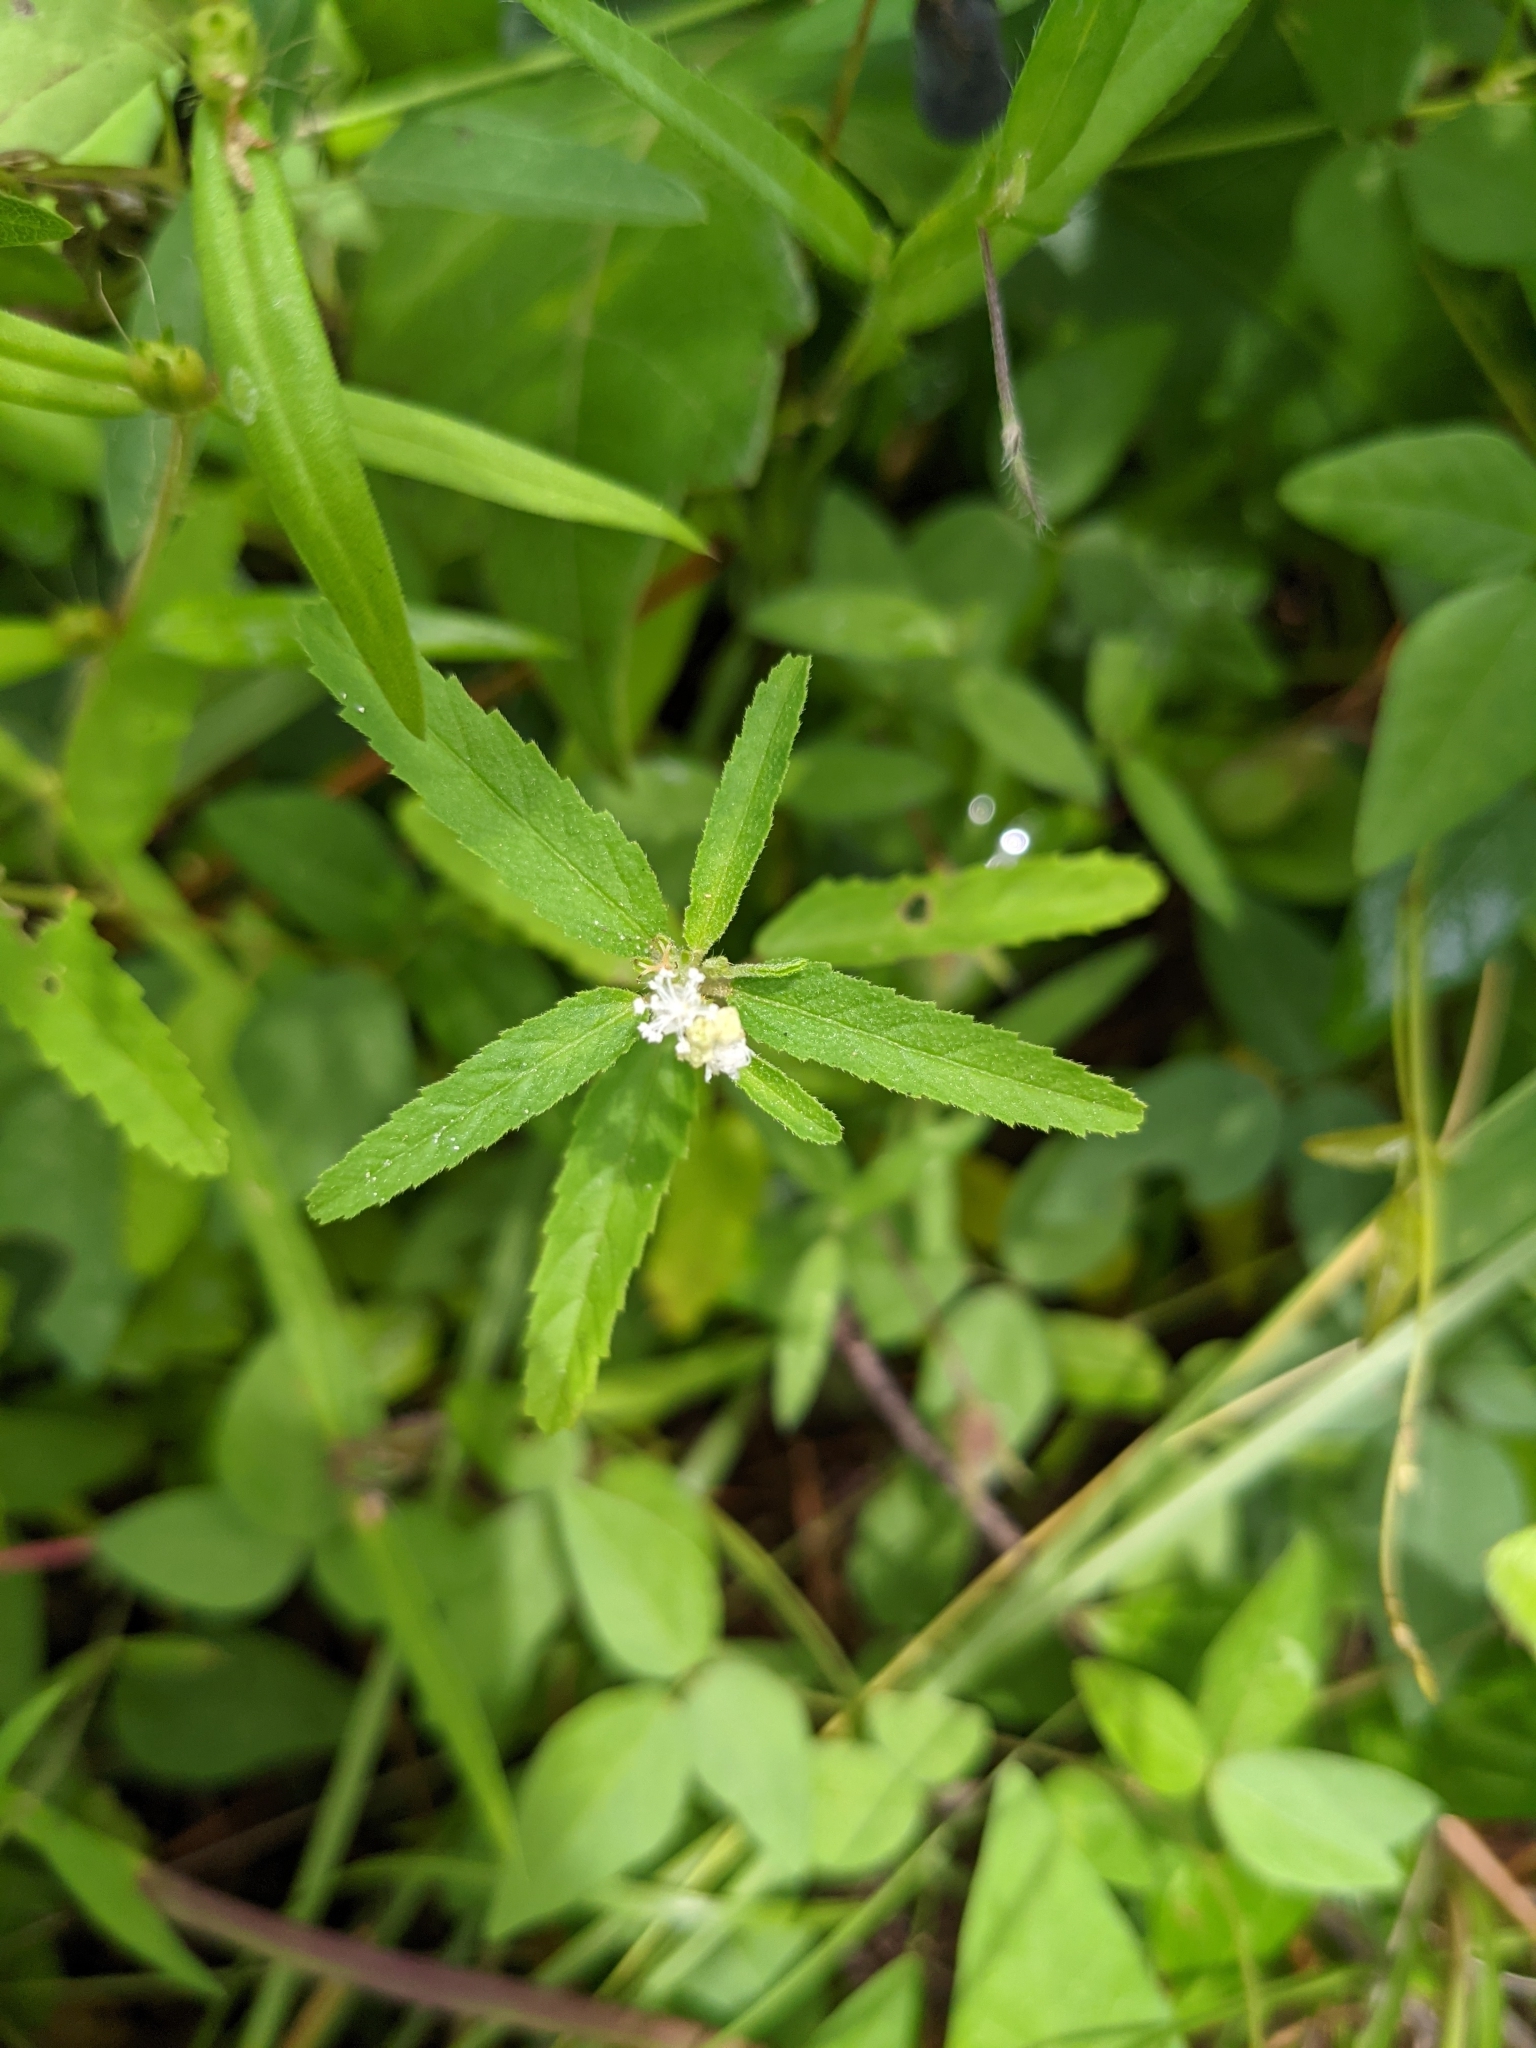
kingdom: Plantae
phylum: Tracheophyta
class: Magnoliopsida
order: Malpighiales
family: Euphorbiaceae
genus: Croton
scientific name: Croton glandulosus
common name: Tropic croton
